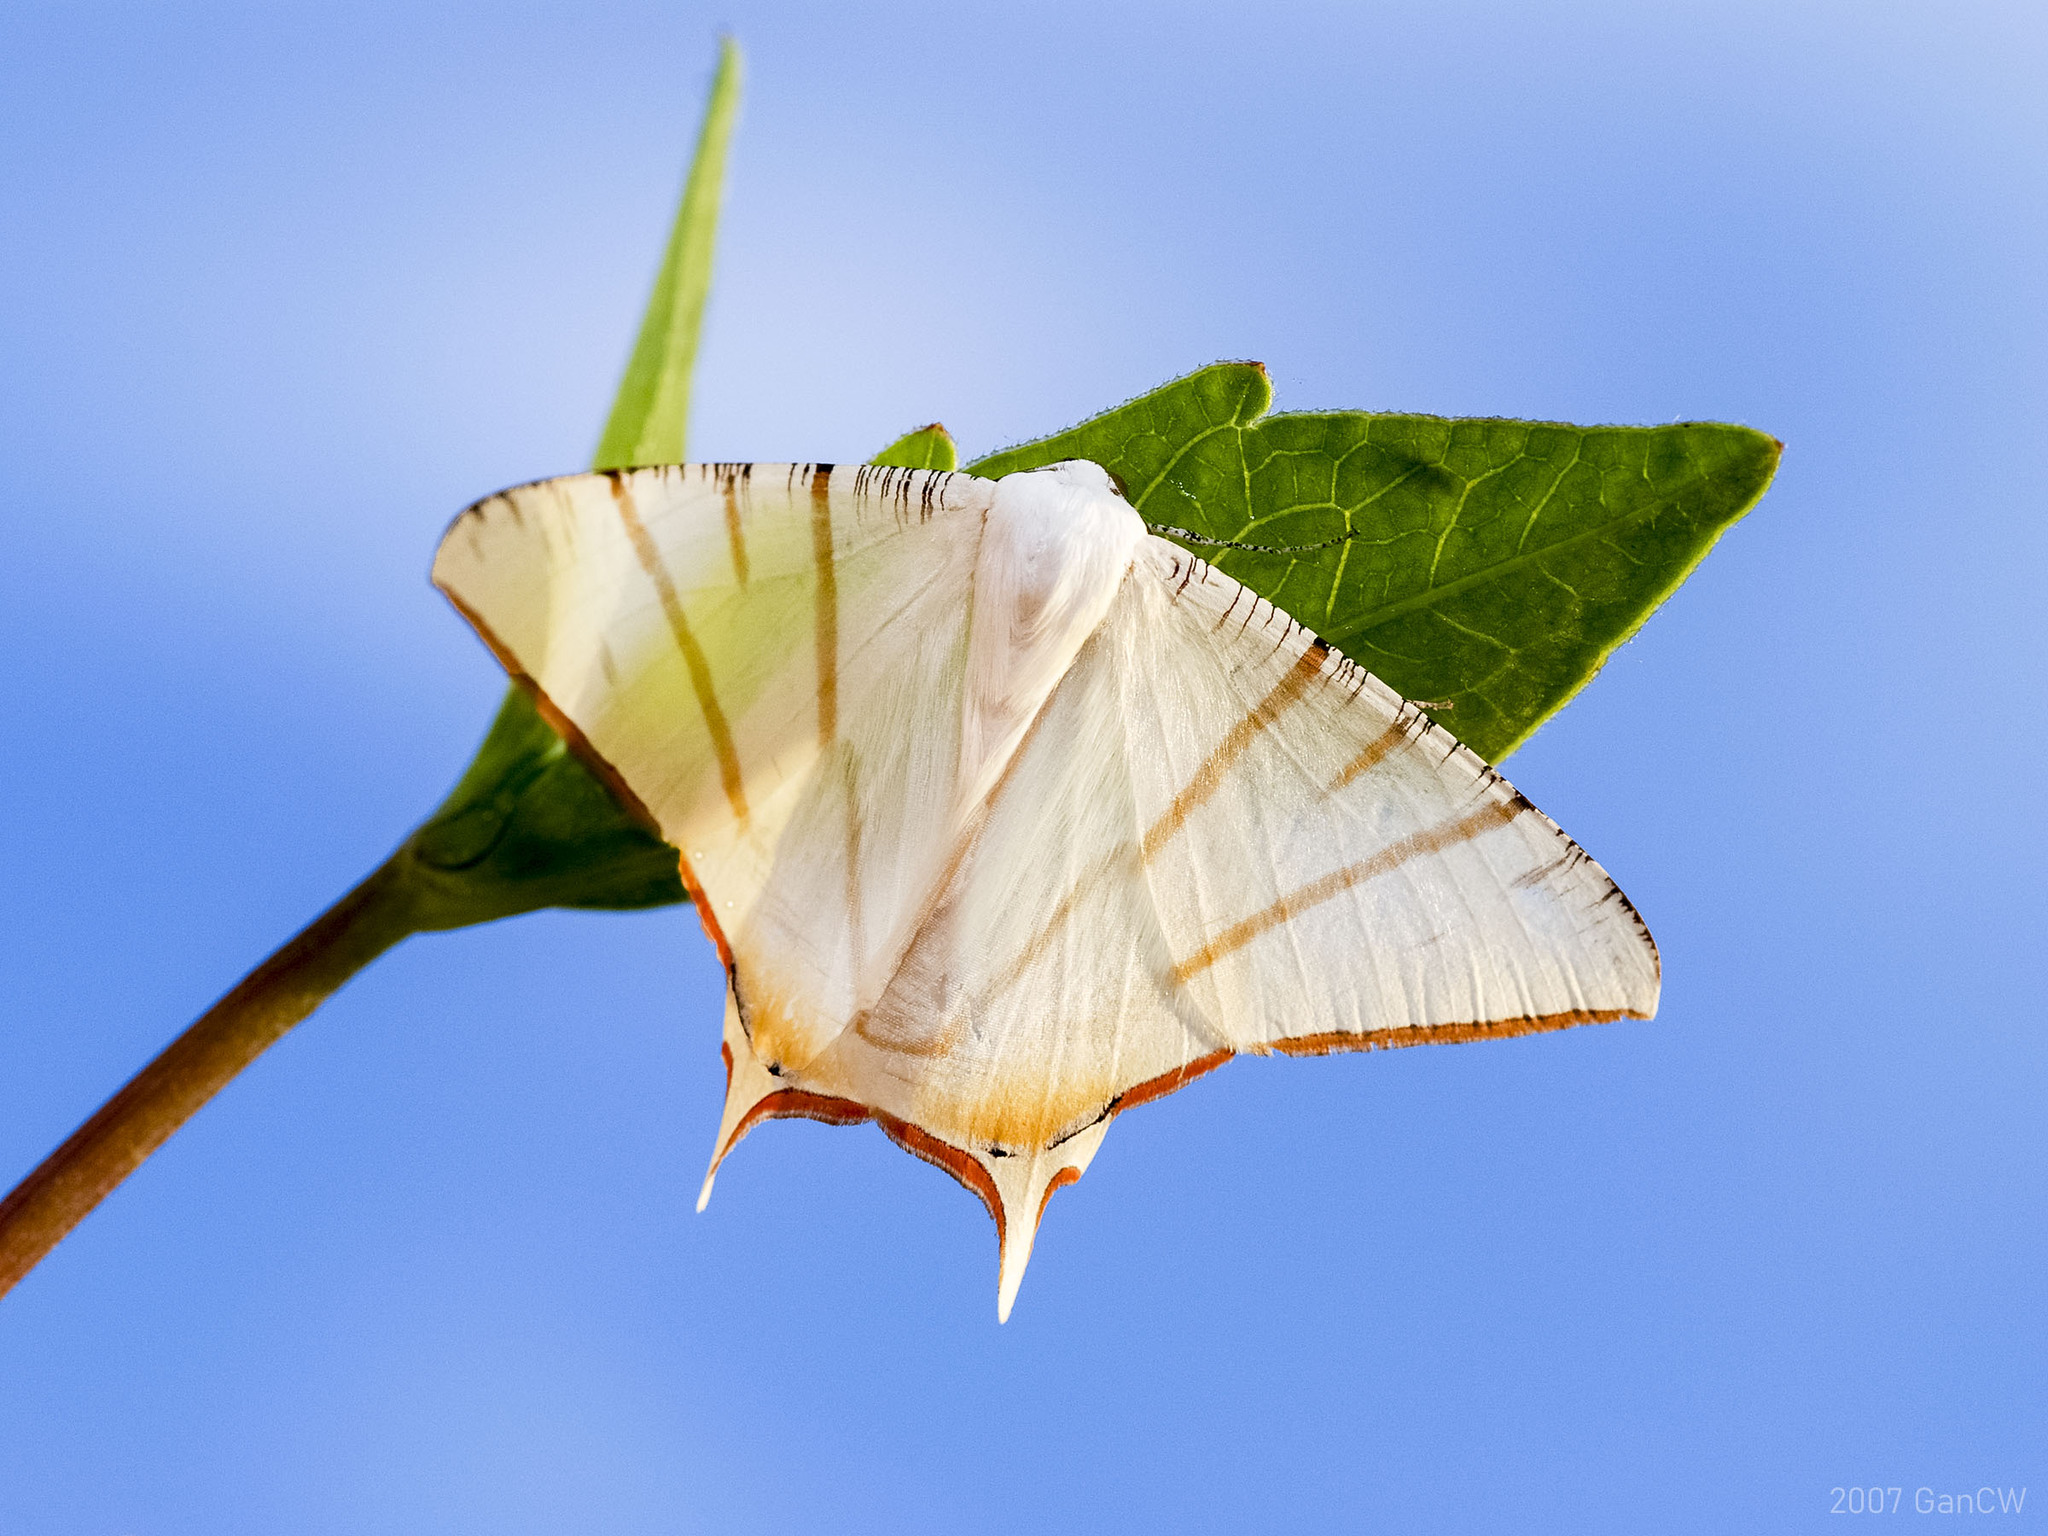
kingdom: Animalia
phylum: Arthropoda
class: Insecta
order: Lepidoptera
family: Geometridae
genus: Ourapteryx
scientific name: Ourapteryx claretta
